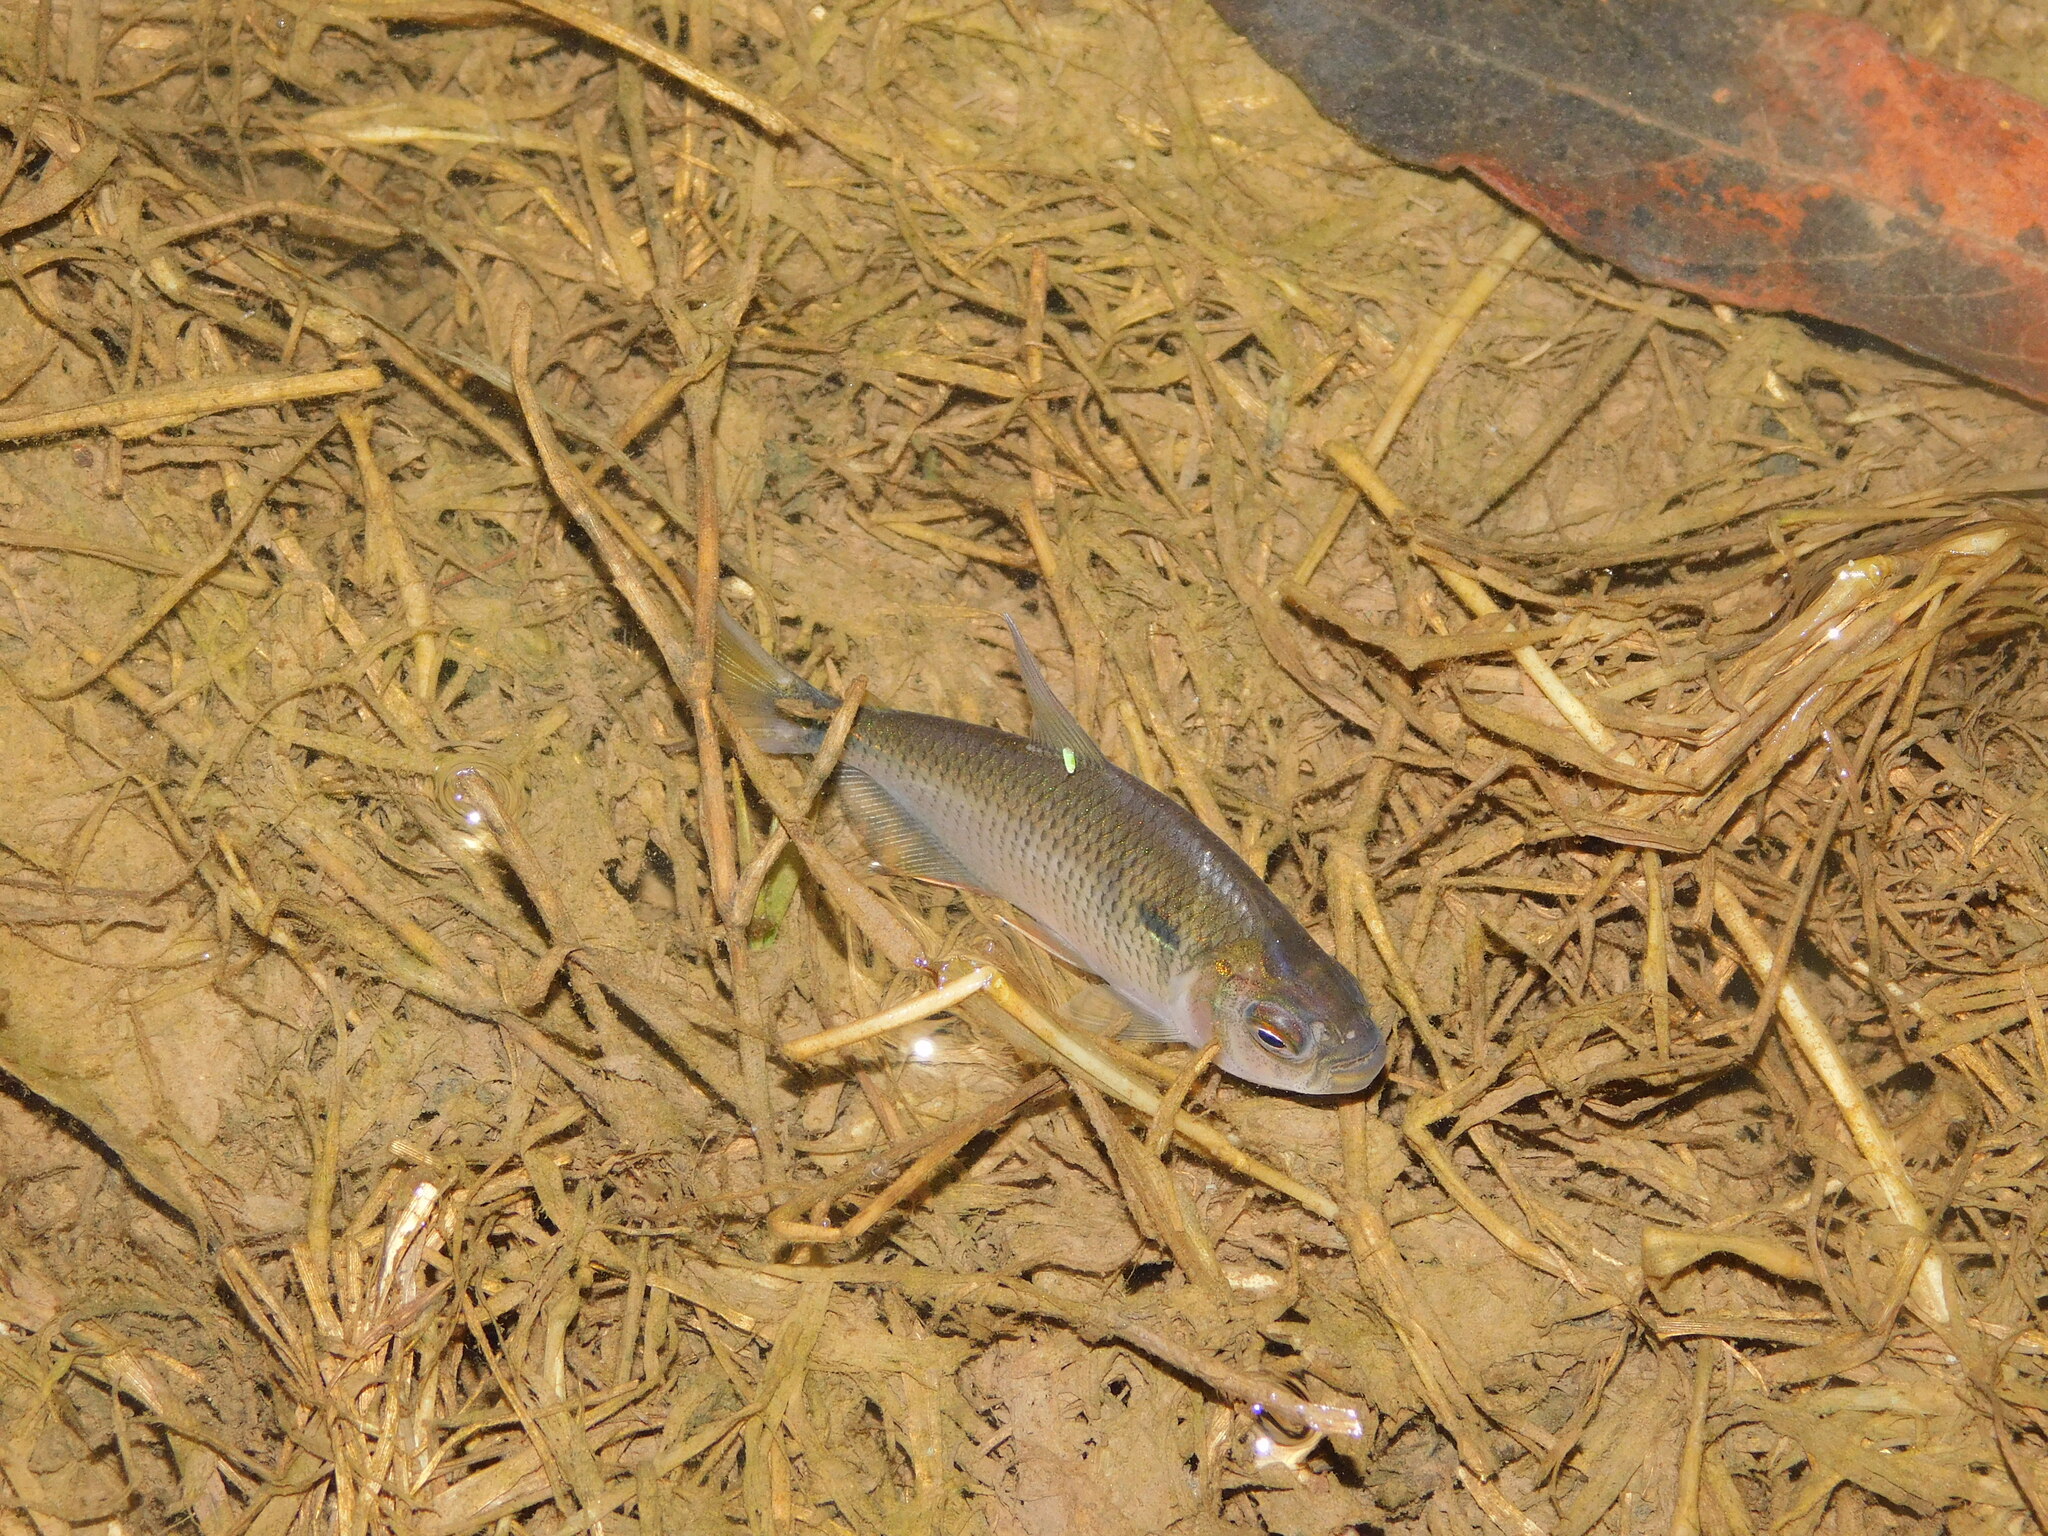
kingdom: Animalia
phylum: Chordata
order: Characiformes
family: Characidae
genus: Astyanax
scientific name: Astyanax abramis
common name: Tetra
